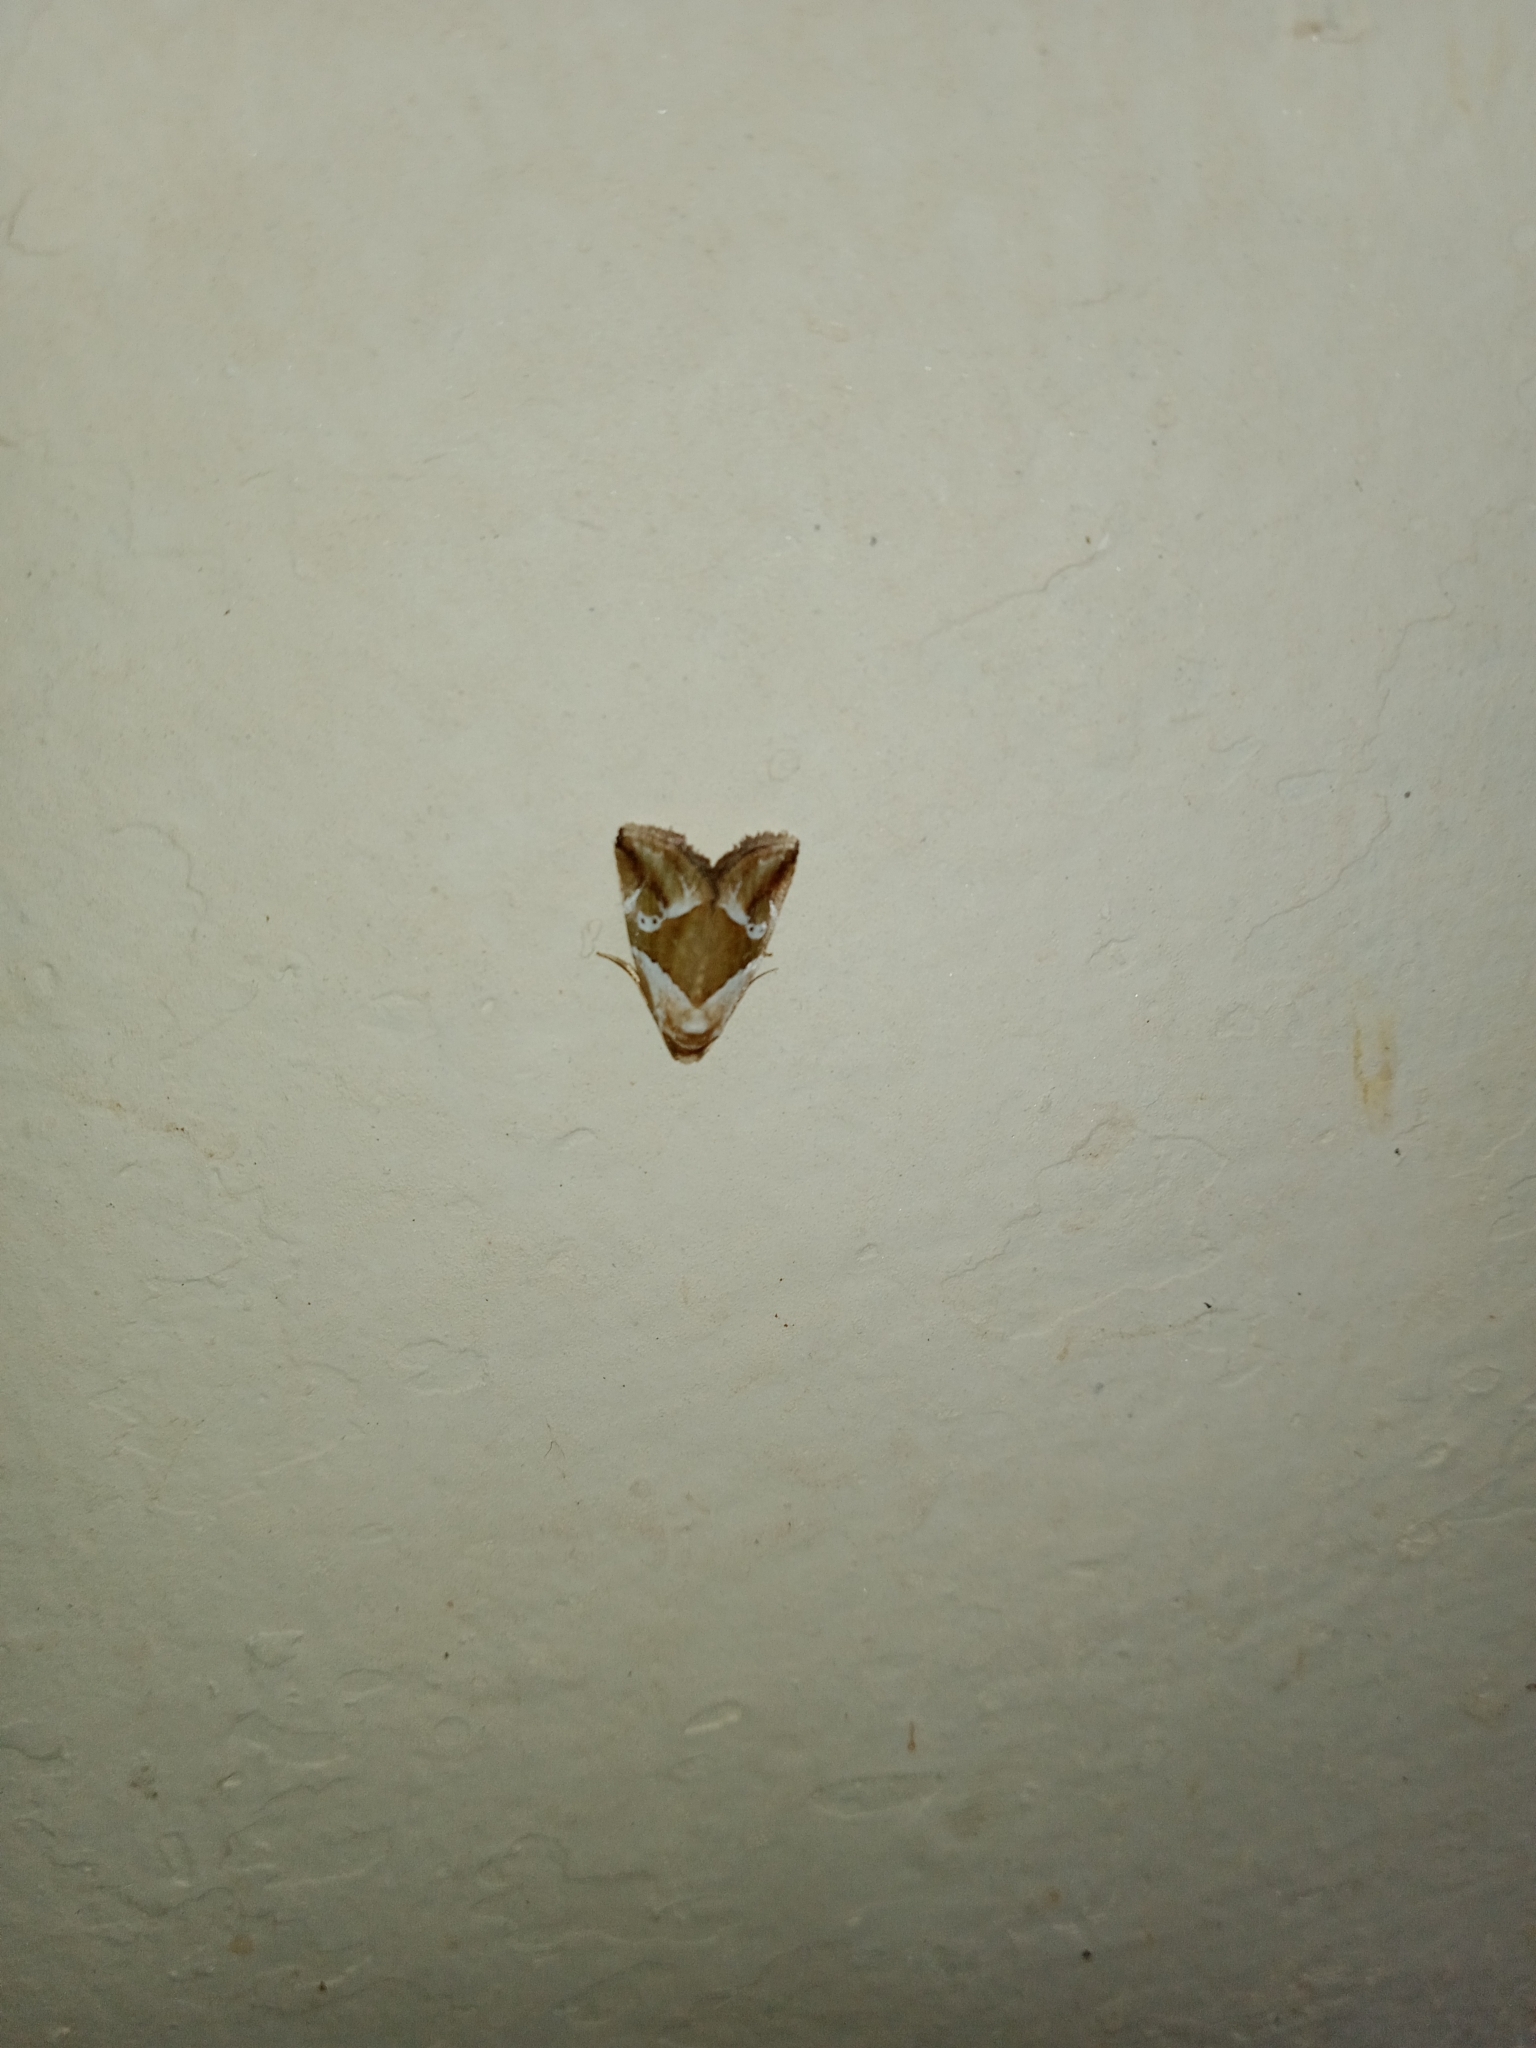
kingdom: Animalia
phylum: Arthropoda
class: Insecta
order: Lepidoptera
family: Noctuidae
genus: Maliattha
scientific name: Maliattha lativitta
